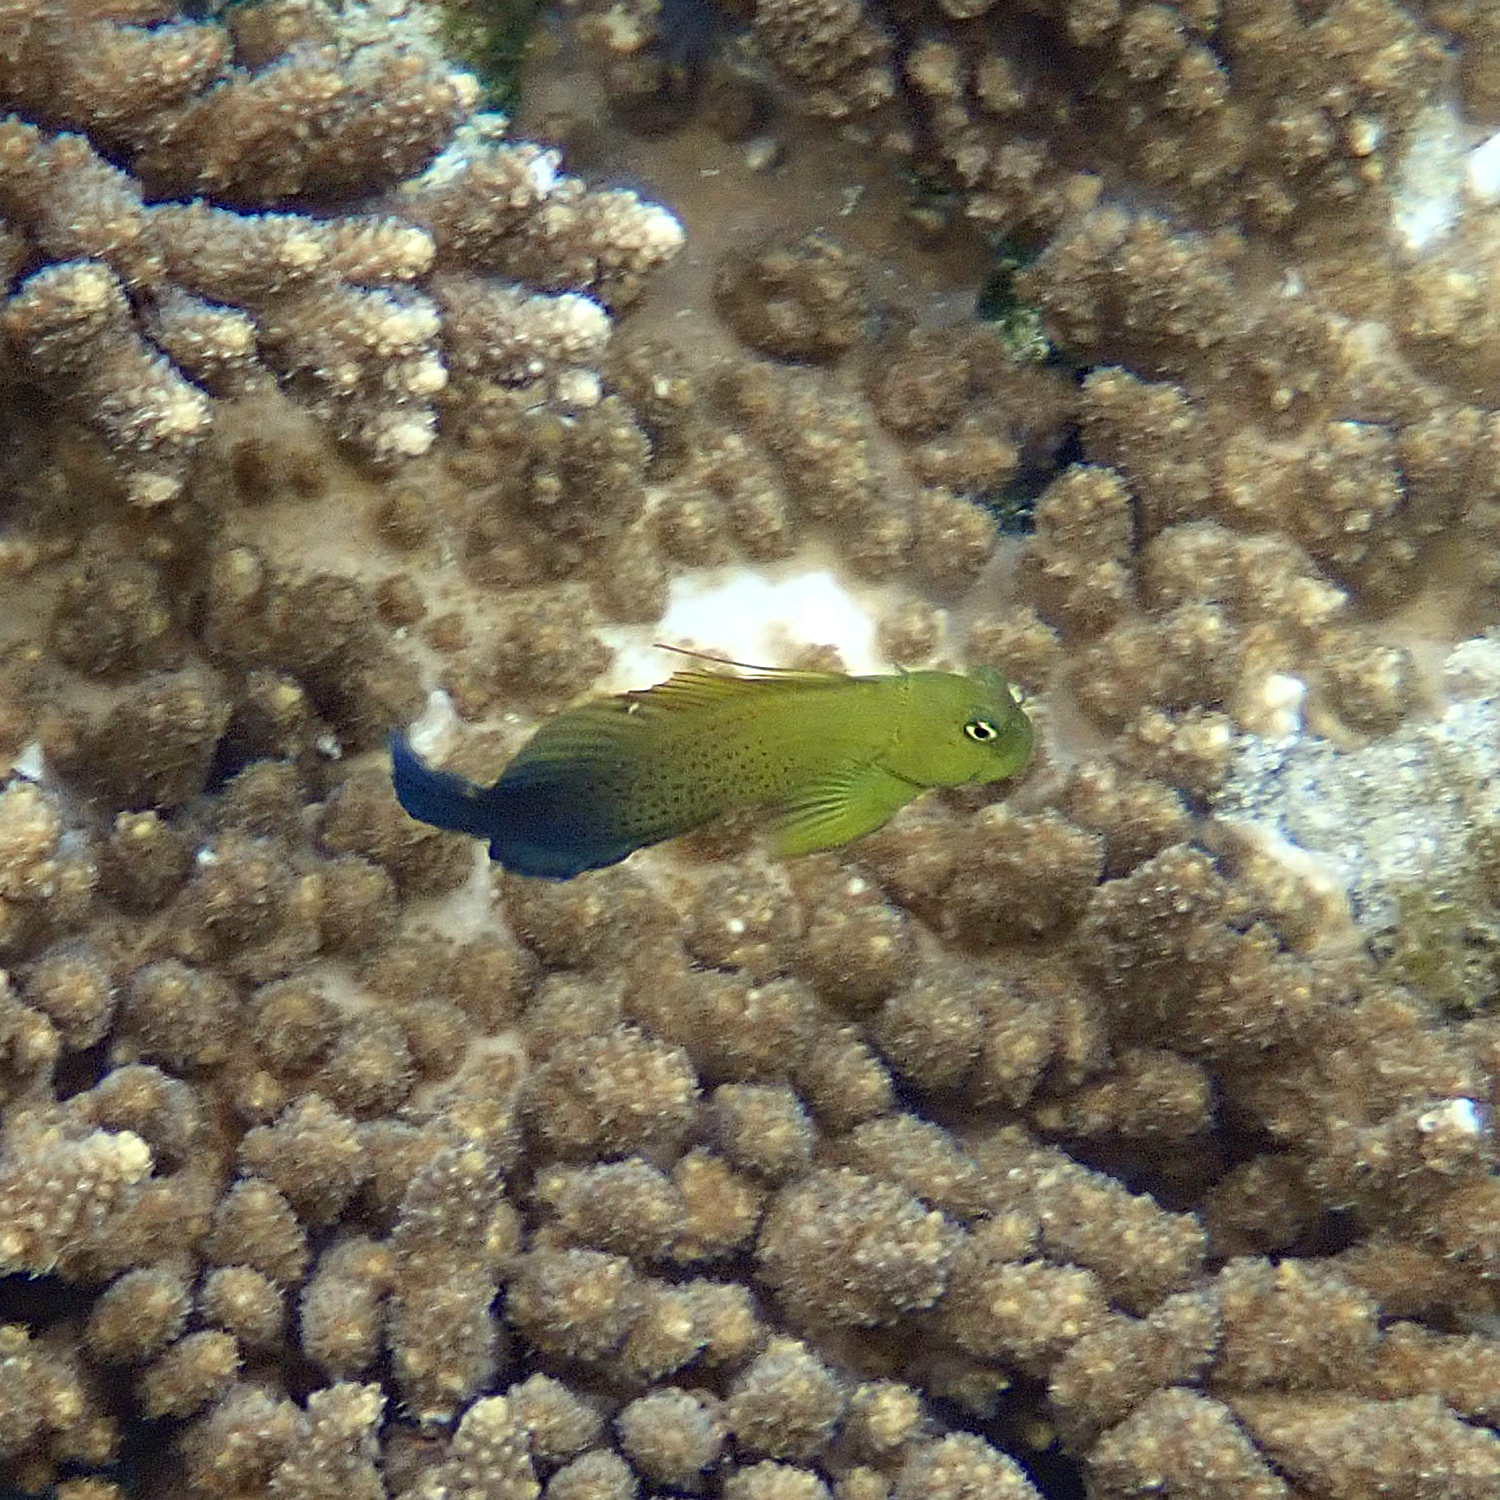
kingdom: Animalia
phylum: Chordata
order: Perciformes
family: Blenniidae
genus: Cirripectes
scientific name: Cirripectes chelomatus
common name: Lady musgrave blenny
